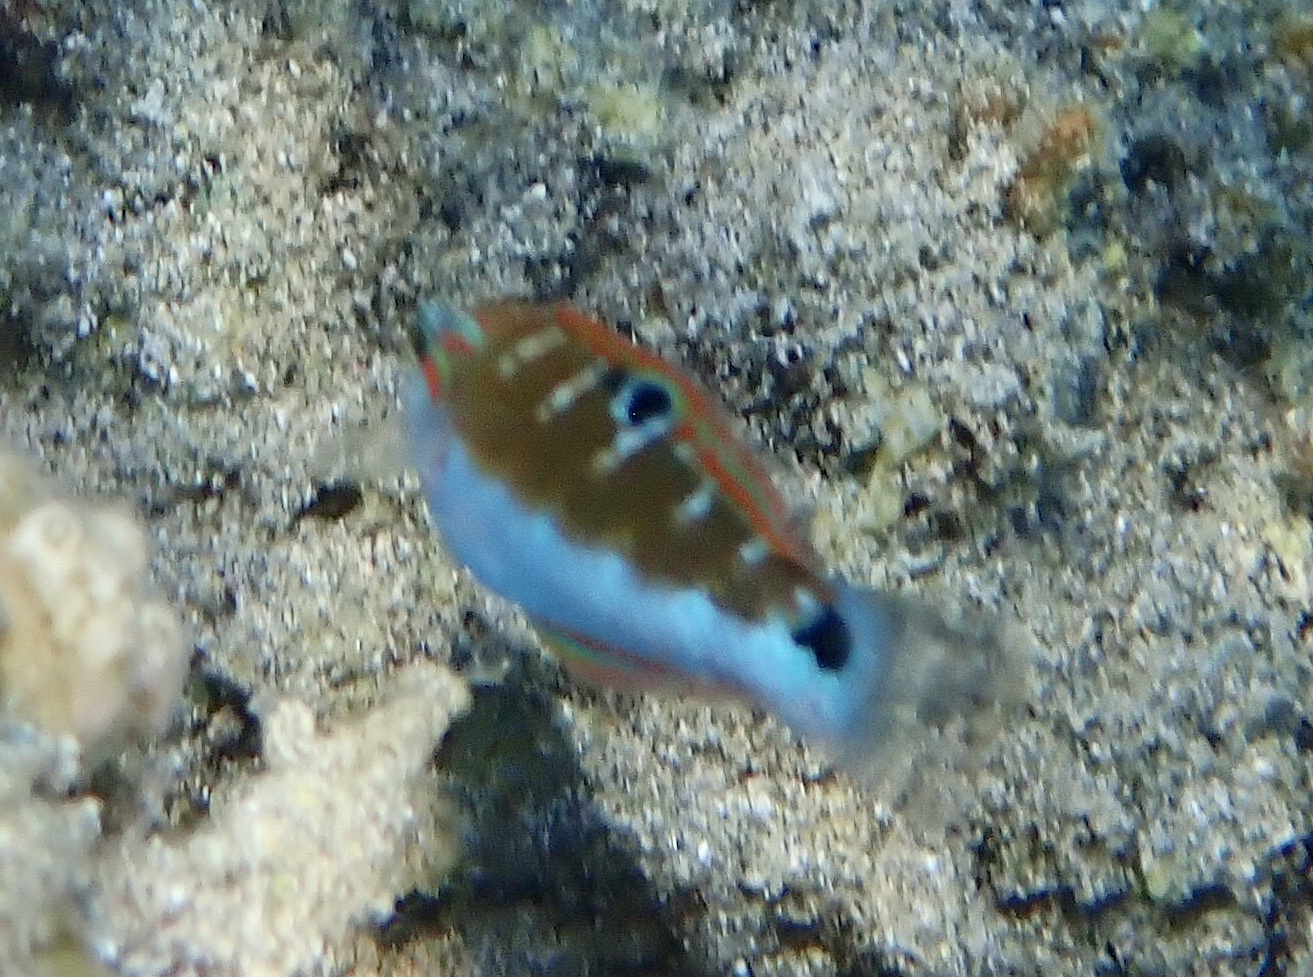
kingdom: Animalia
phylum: Chordata
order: Perciformes
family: Labridae
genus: Thalassoma
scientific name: Thalassoma lunare
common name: Blue wrasse
